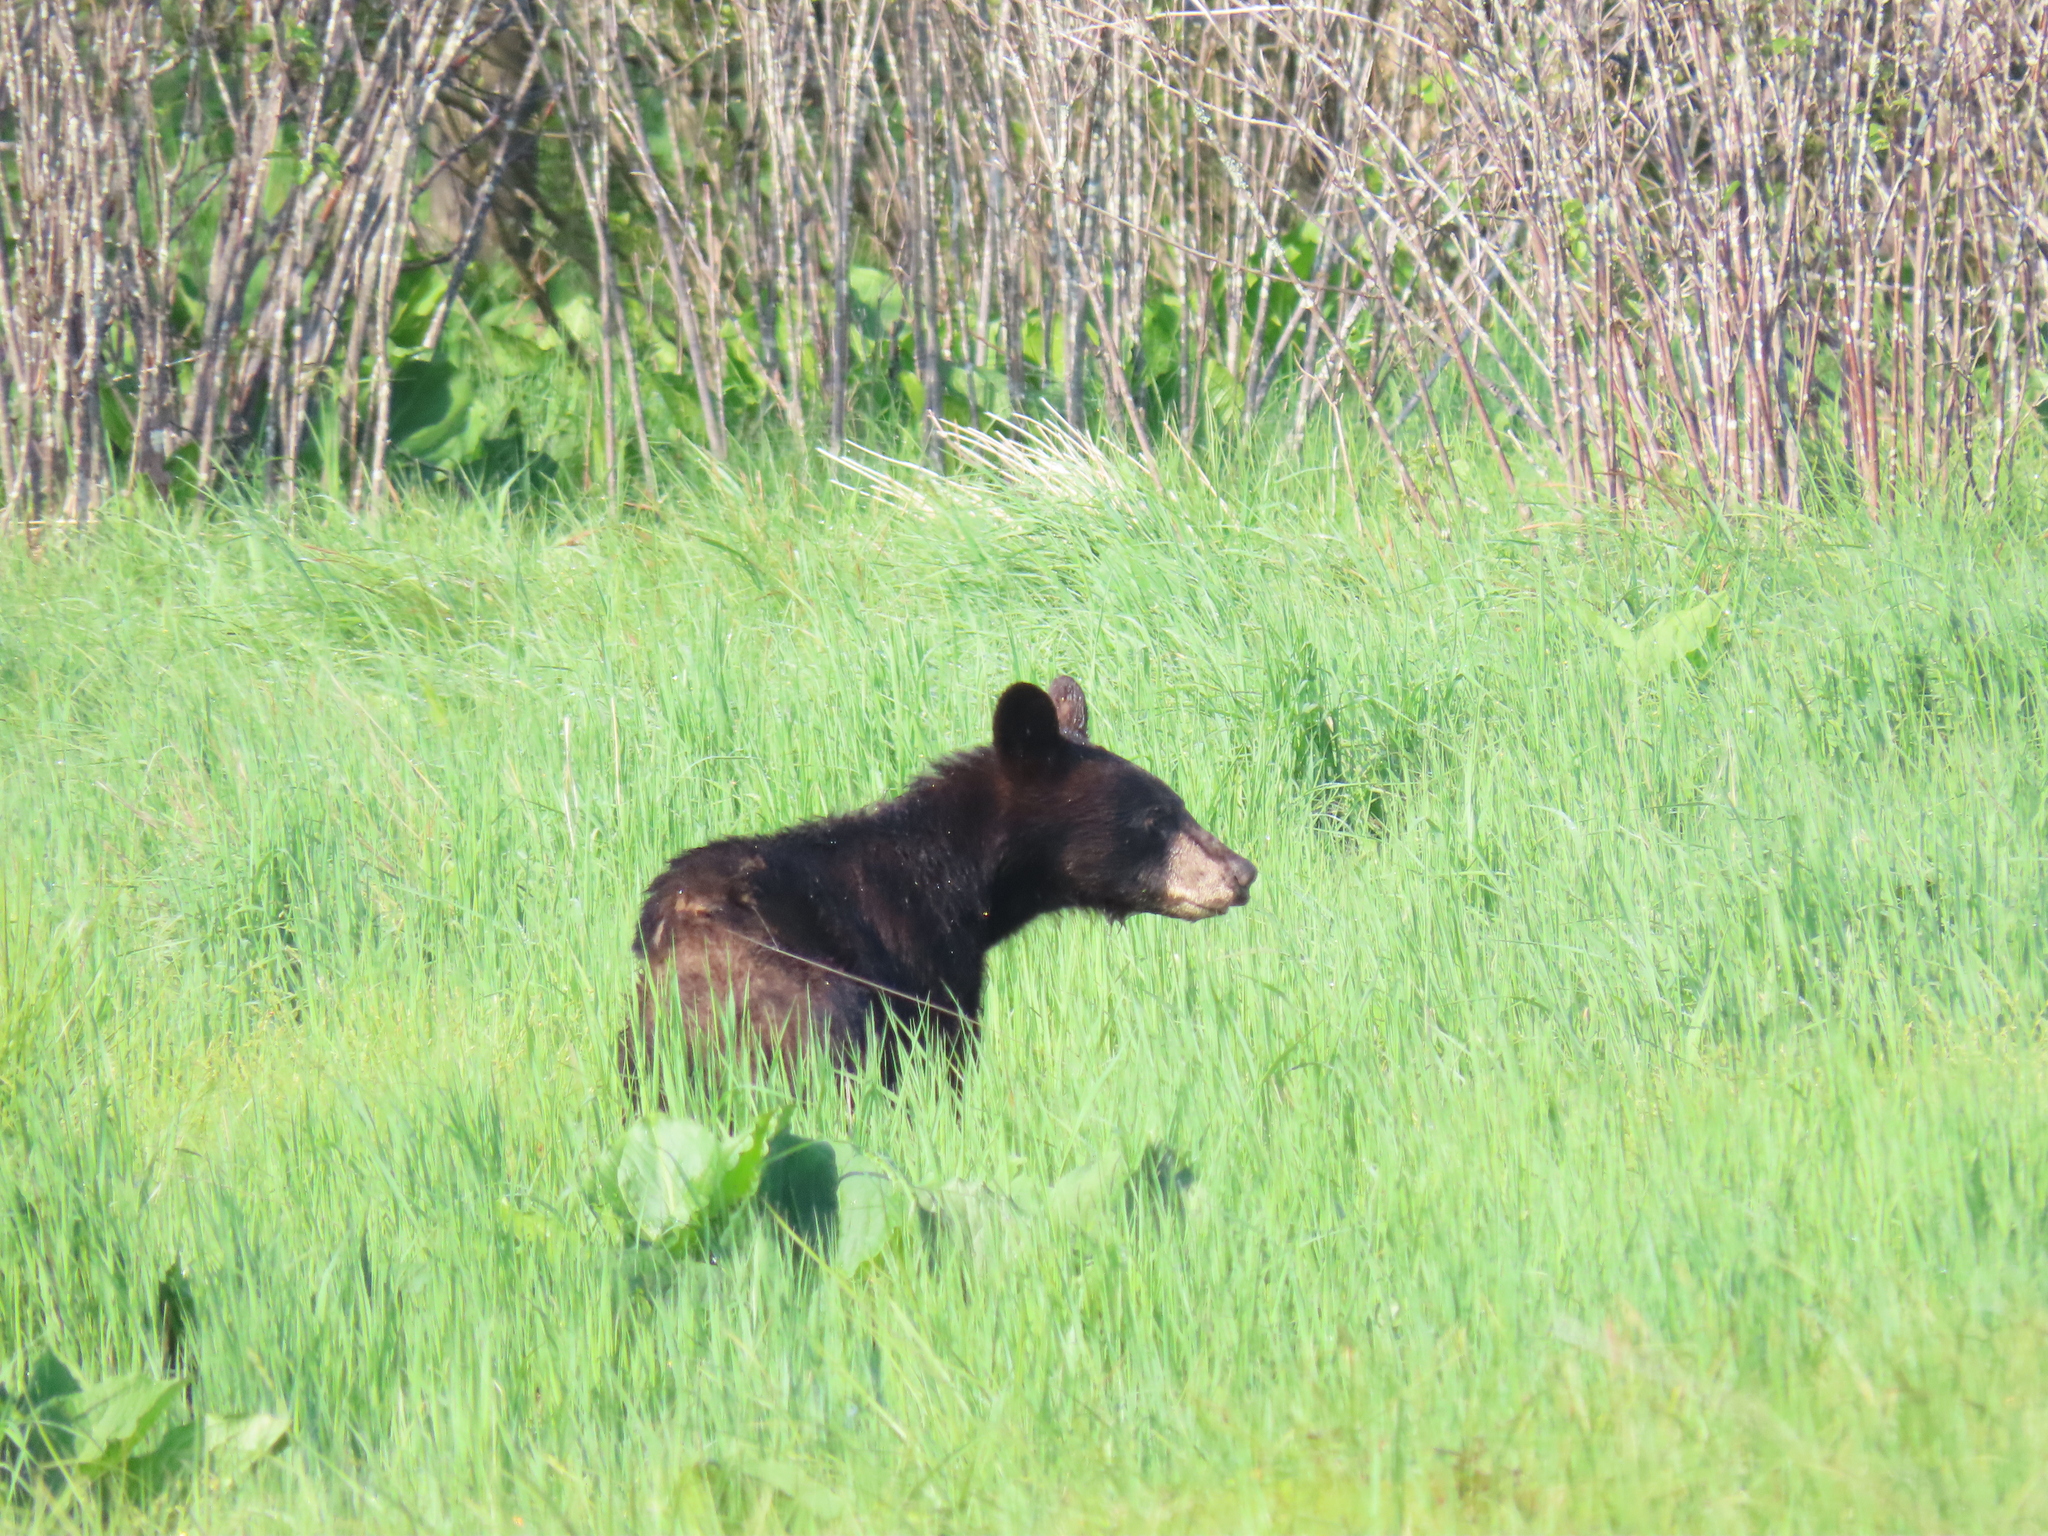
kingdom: Animalia
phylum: Chordata
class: Mammalia
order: Carnivora
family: Ursidae
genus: Ursus
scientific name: Ursus americanus
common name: American black bear
